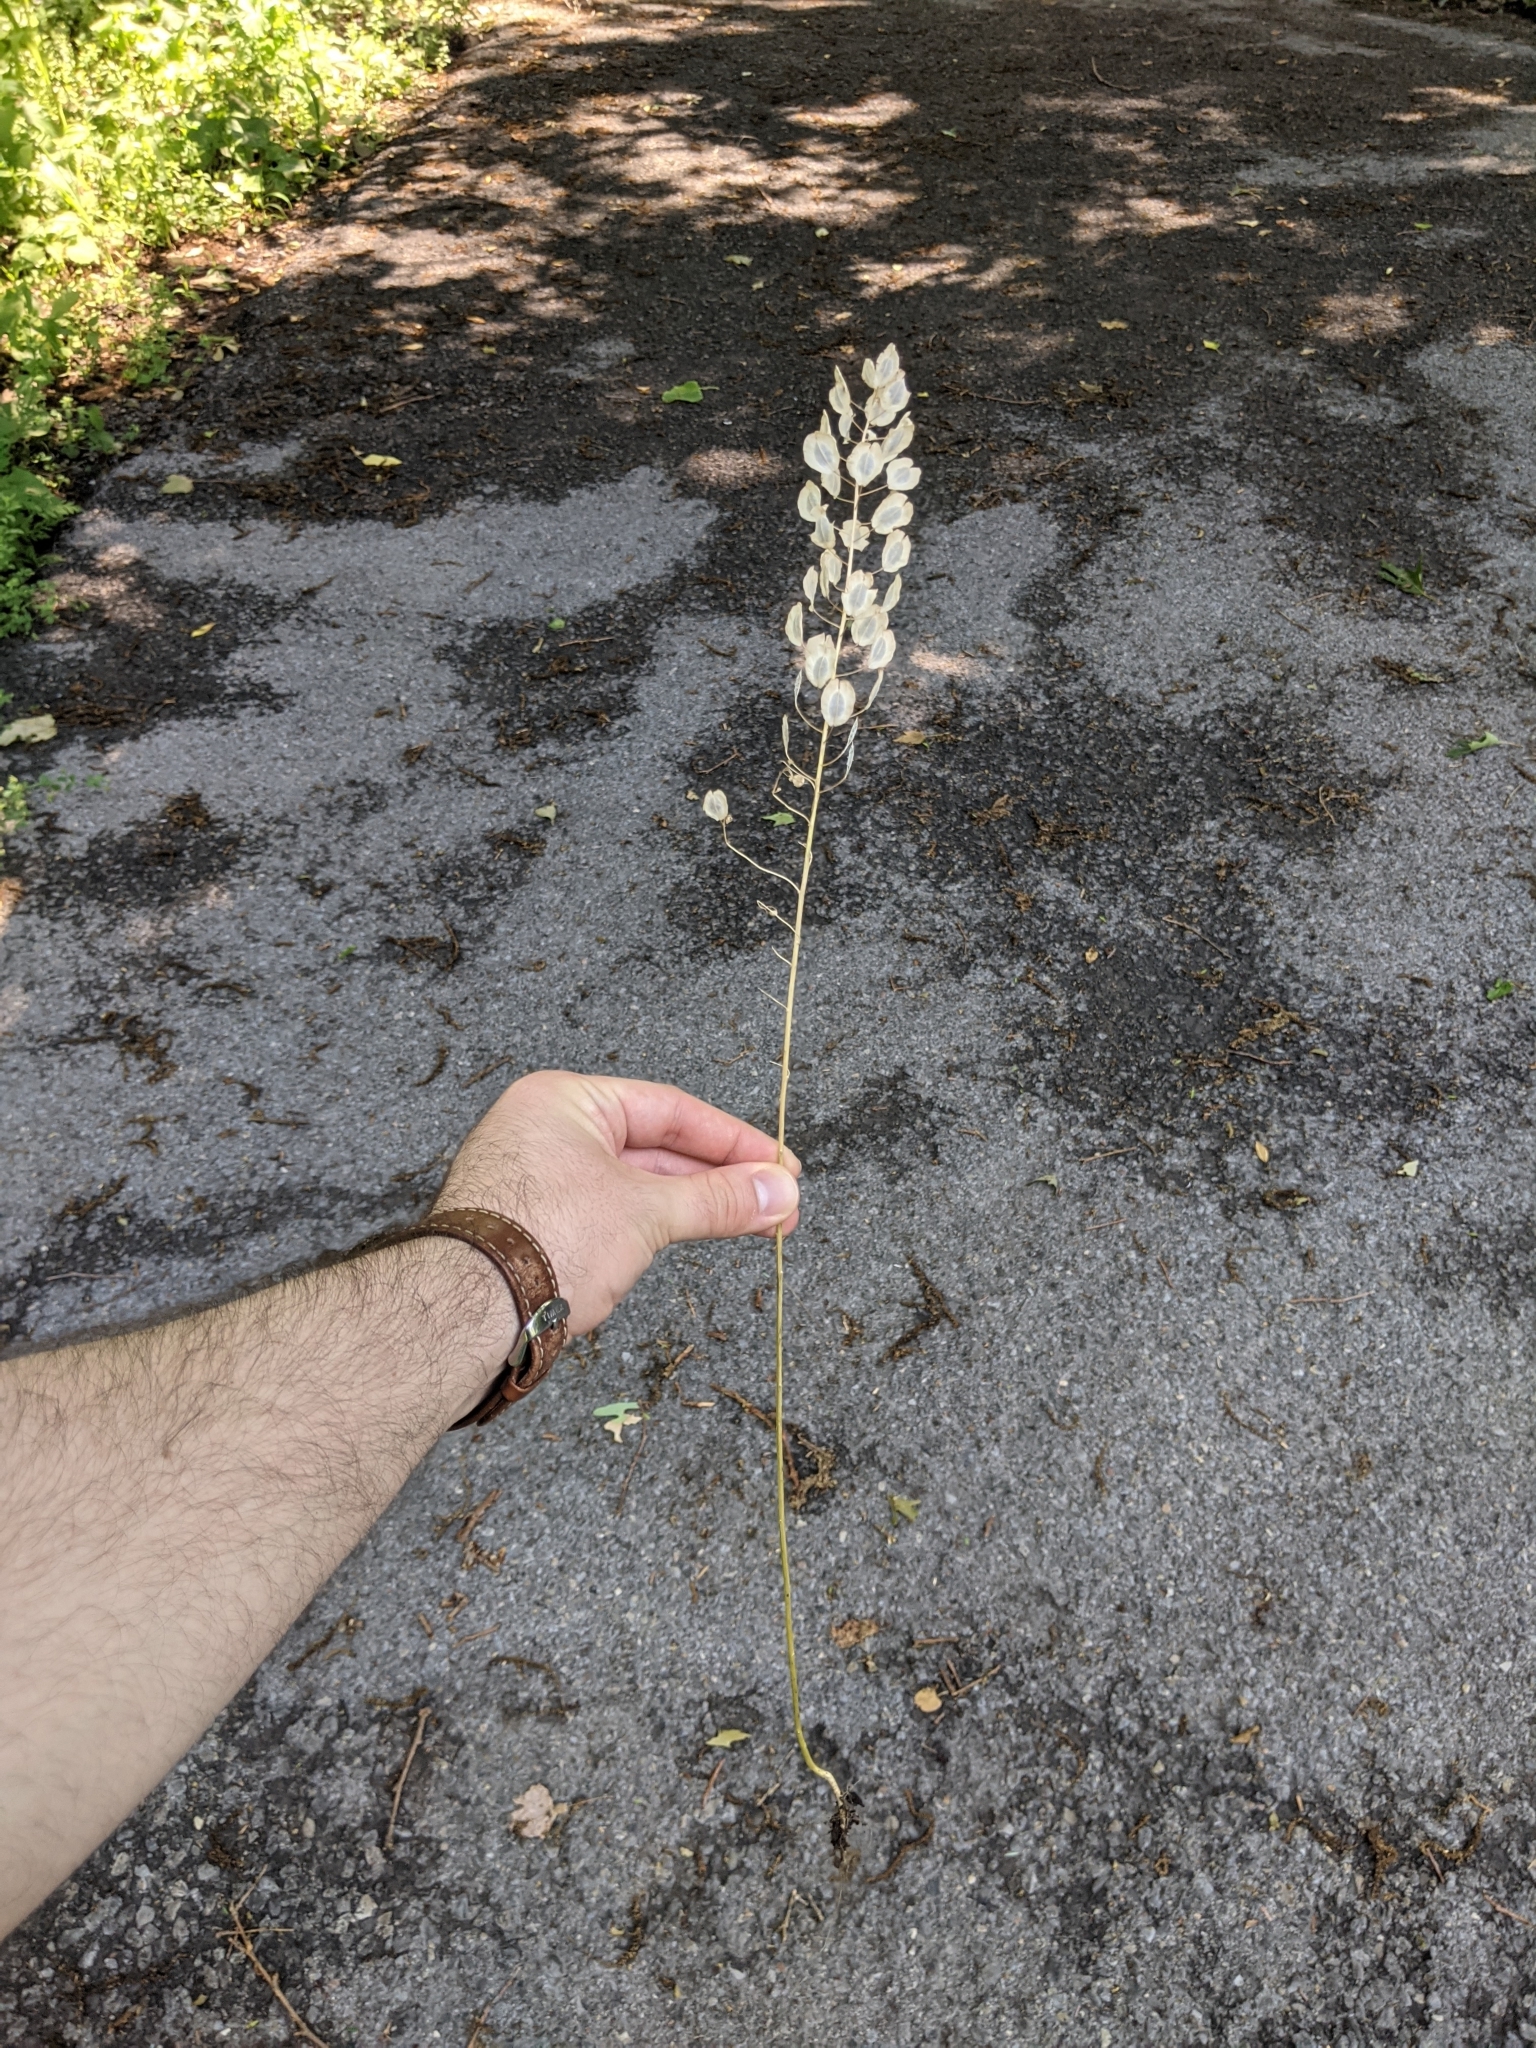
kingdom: Plantae
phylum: Tracheophyta
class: Magnoliopsida
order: Brassicales
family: Brassicaceae
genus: Thlaspi
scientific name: Thlaspi arvense
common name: Field pennycress
